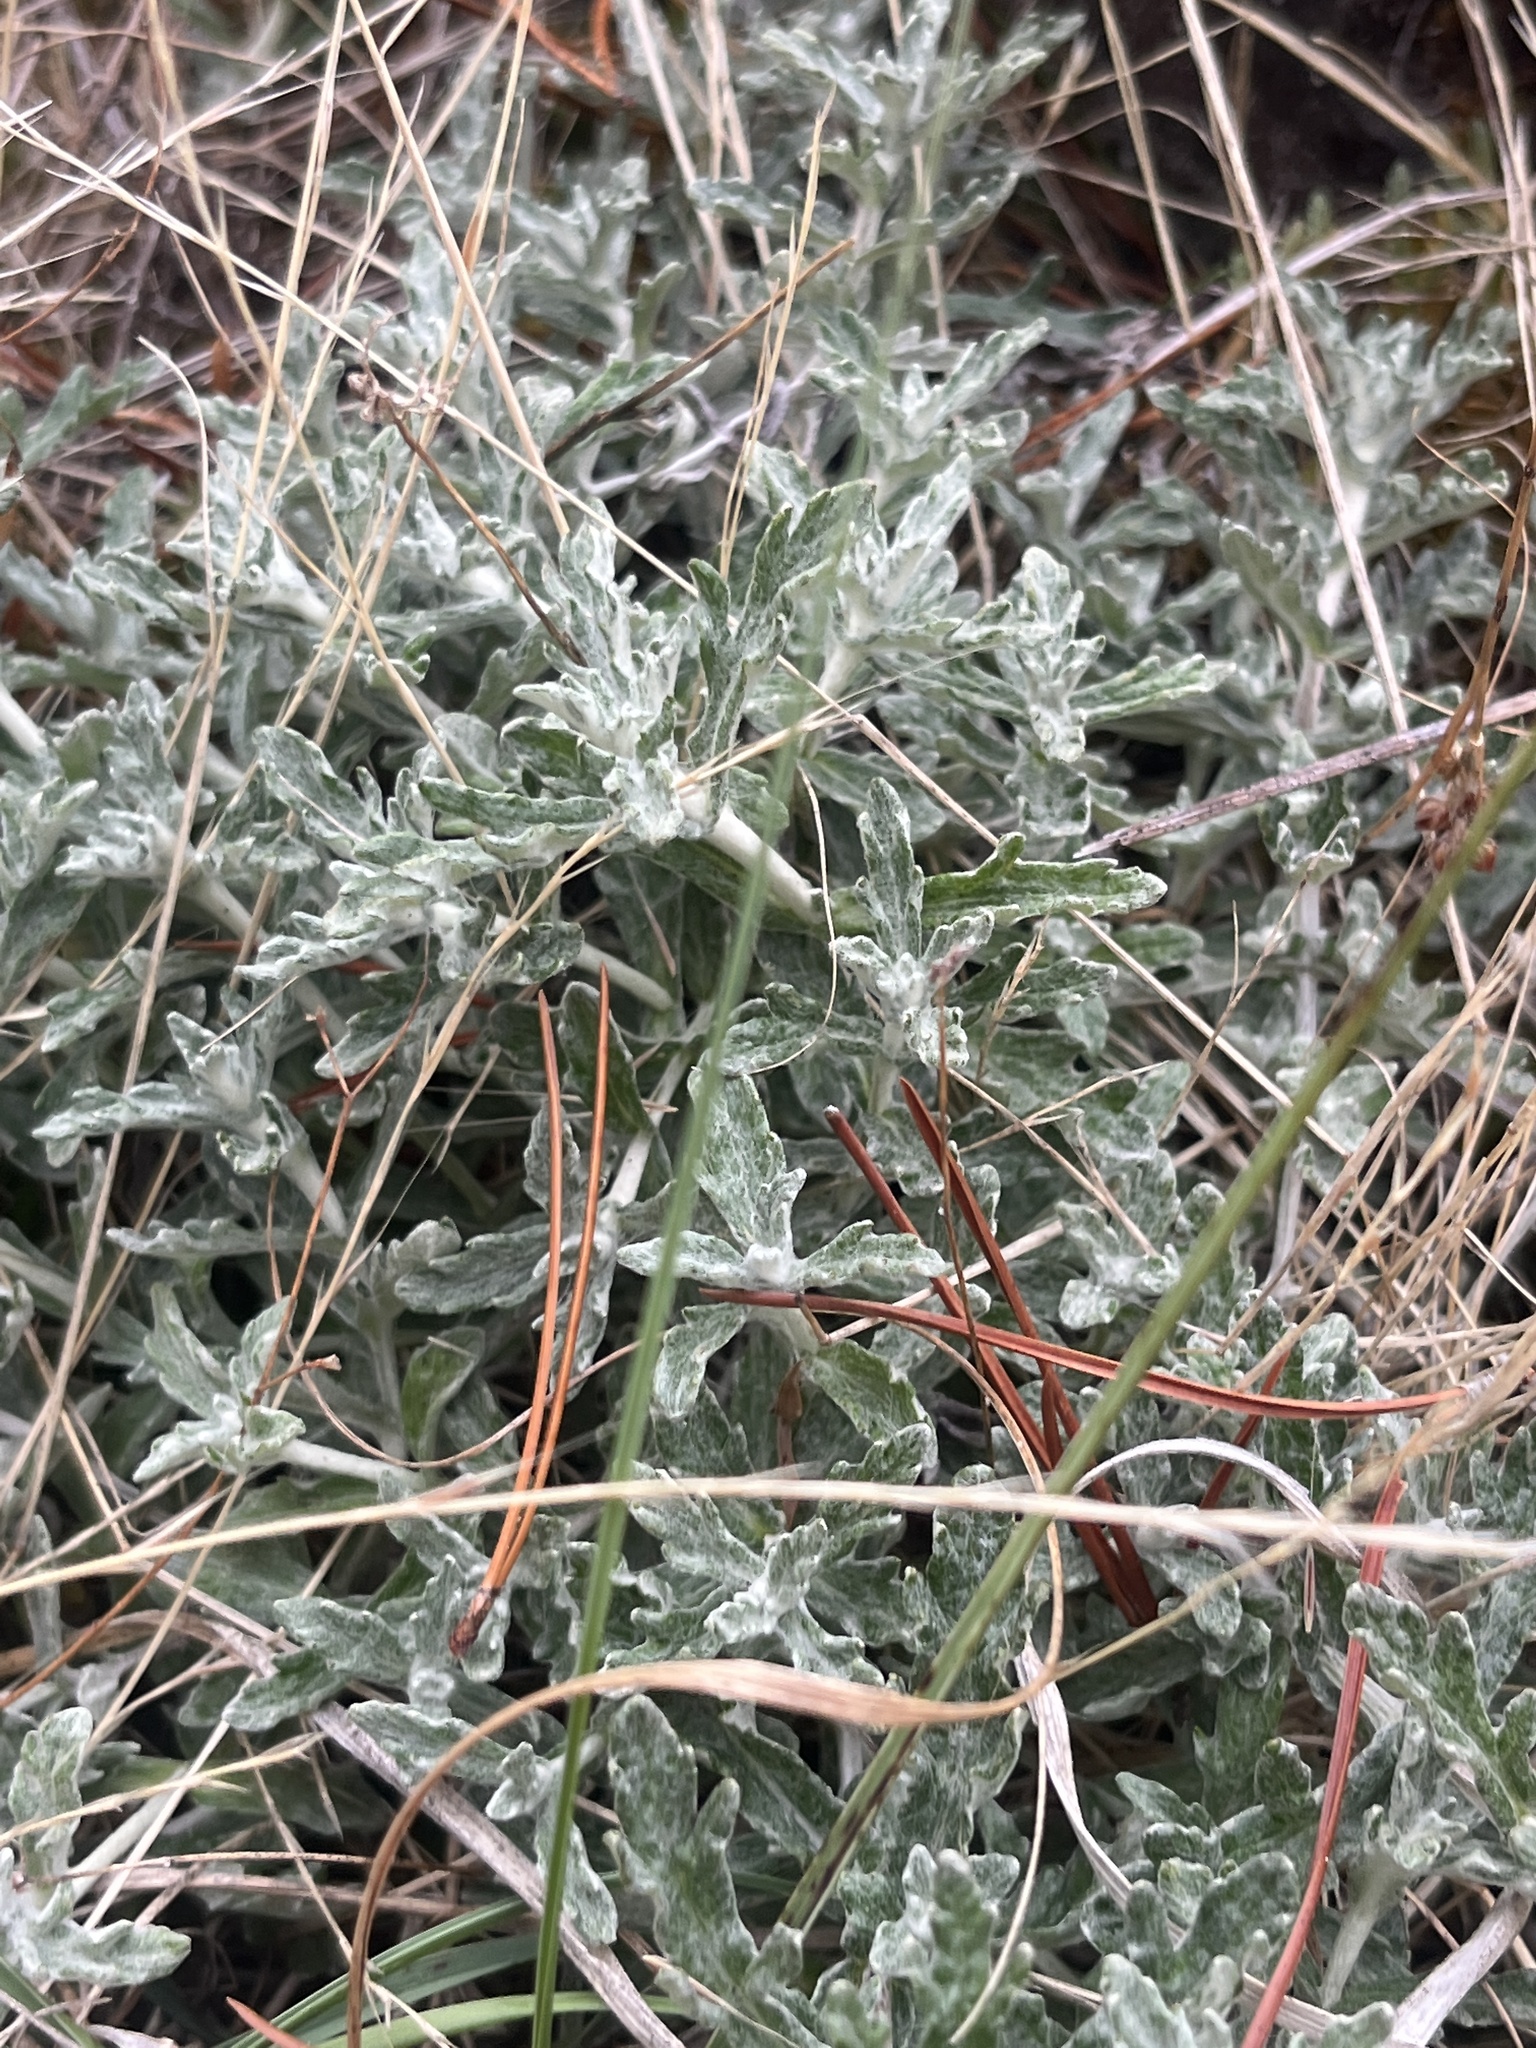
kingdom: Plantae
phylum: Tracheophyta
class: Magnoliopsida
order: Asterales
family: Asteraceae
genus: Eriophyllum
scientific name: Eriophyllum lanatum
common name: Common woolly-sunflower
